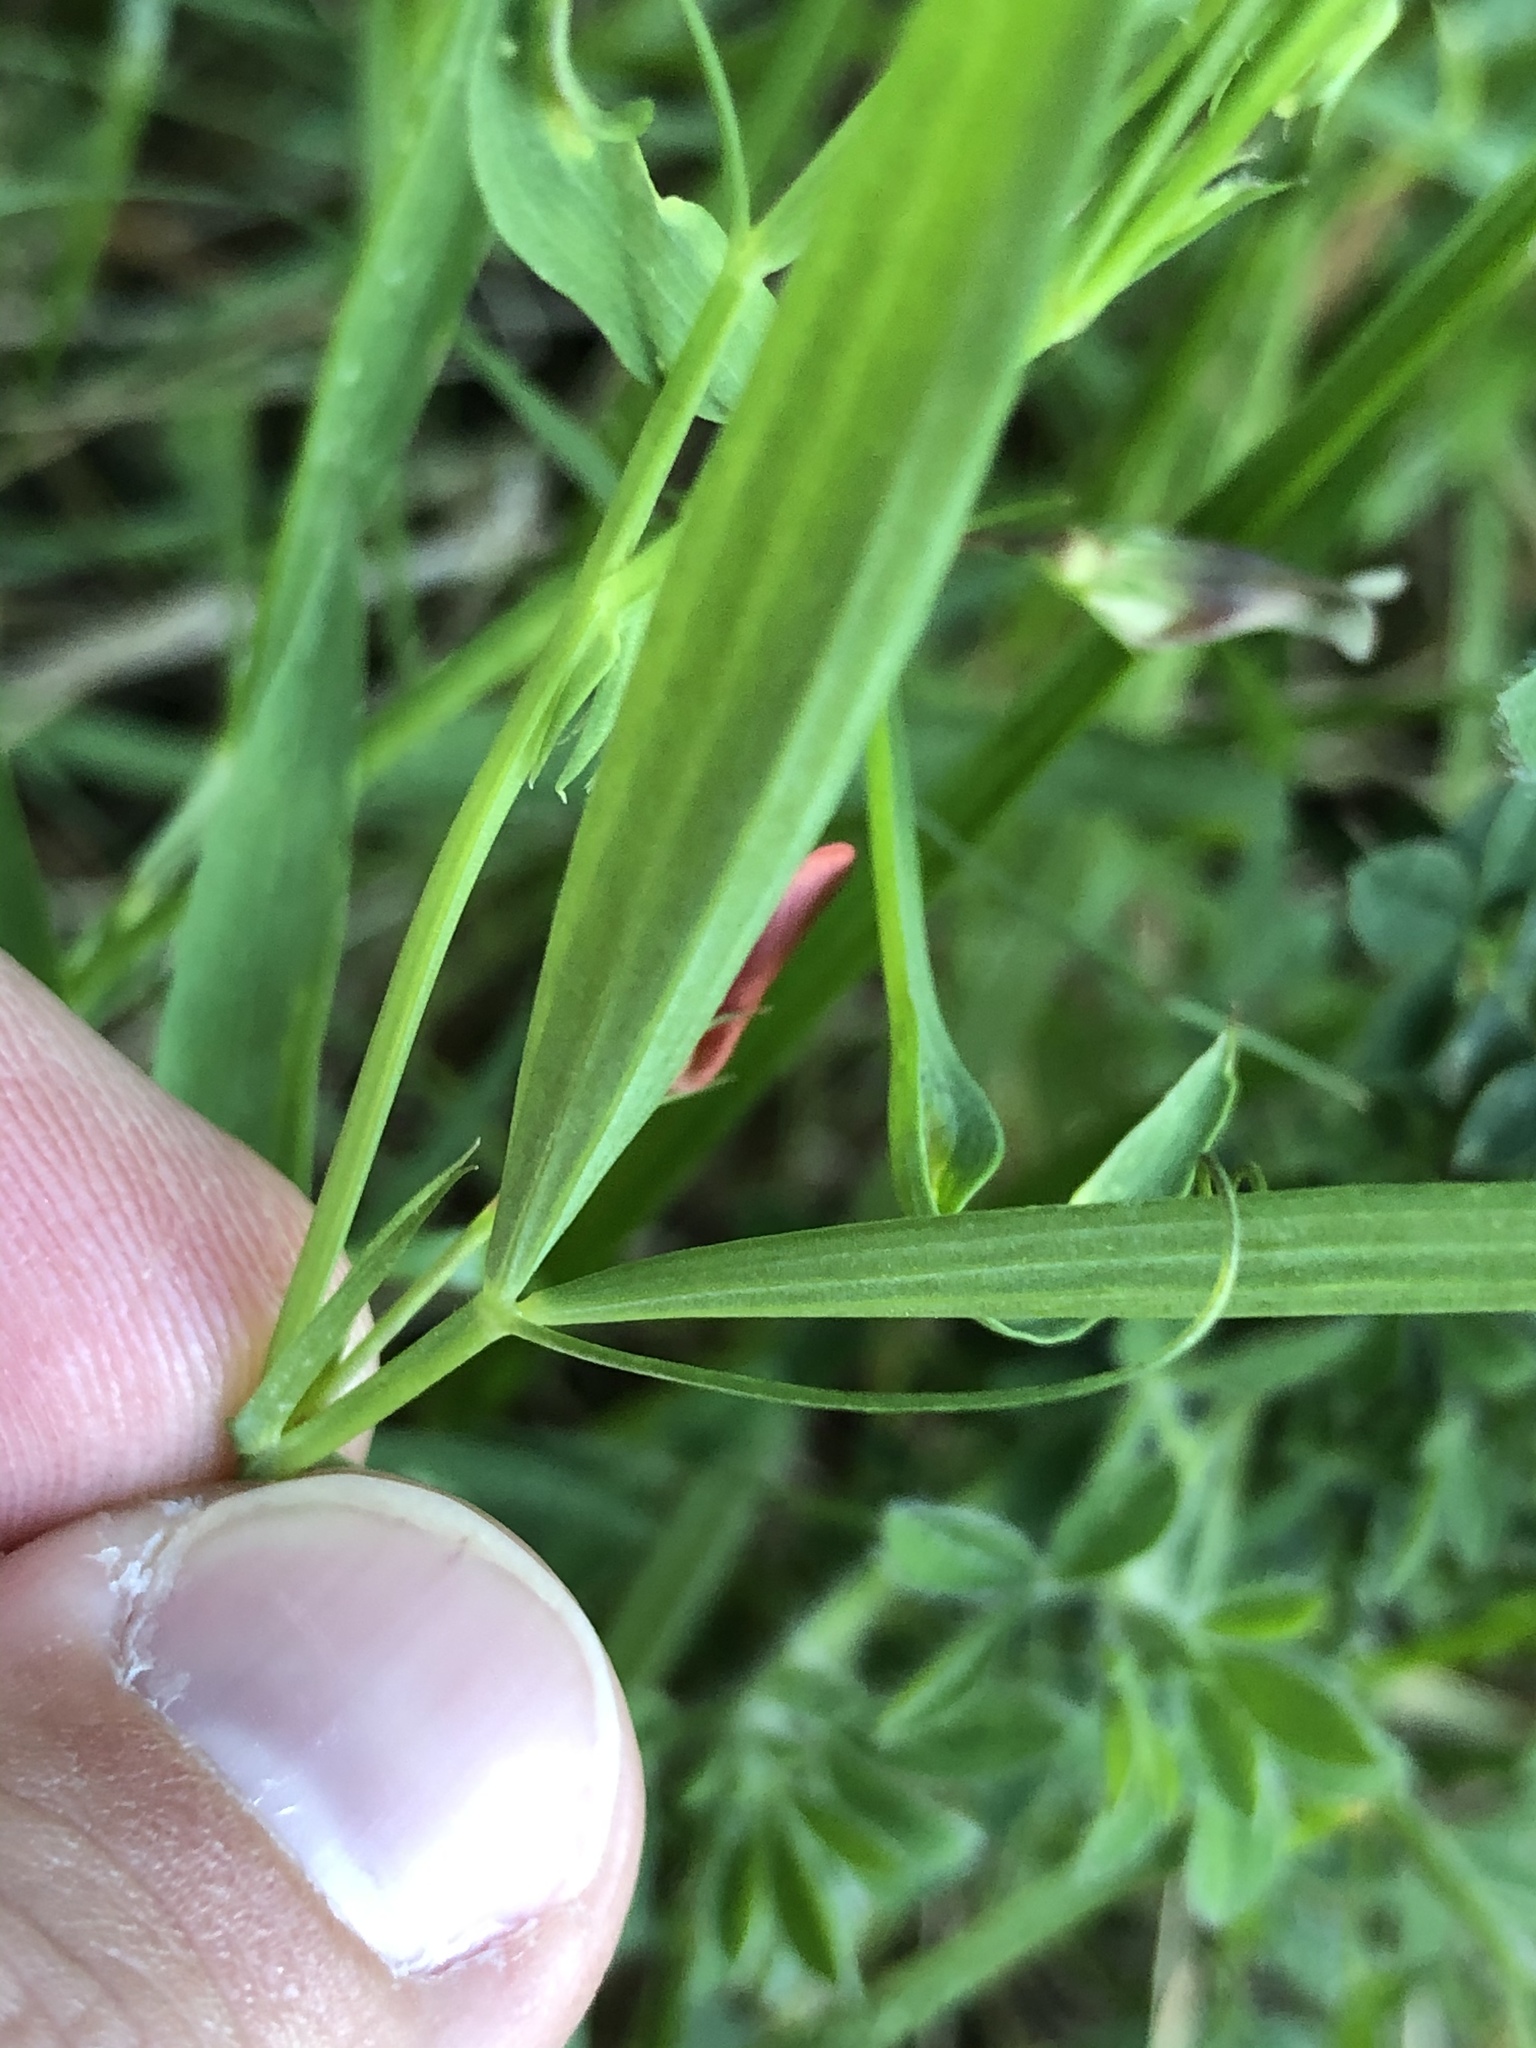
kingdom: Plantae
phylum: Tracheophyta
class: Magnoliopsida
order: Fabales
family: Fabaceae
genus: Lathyrus
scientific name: Lathyrus sphaericus
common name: Grass pea
